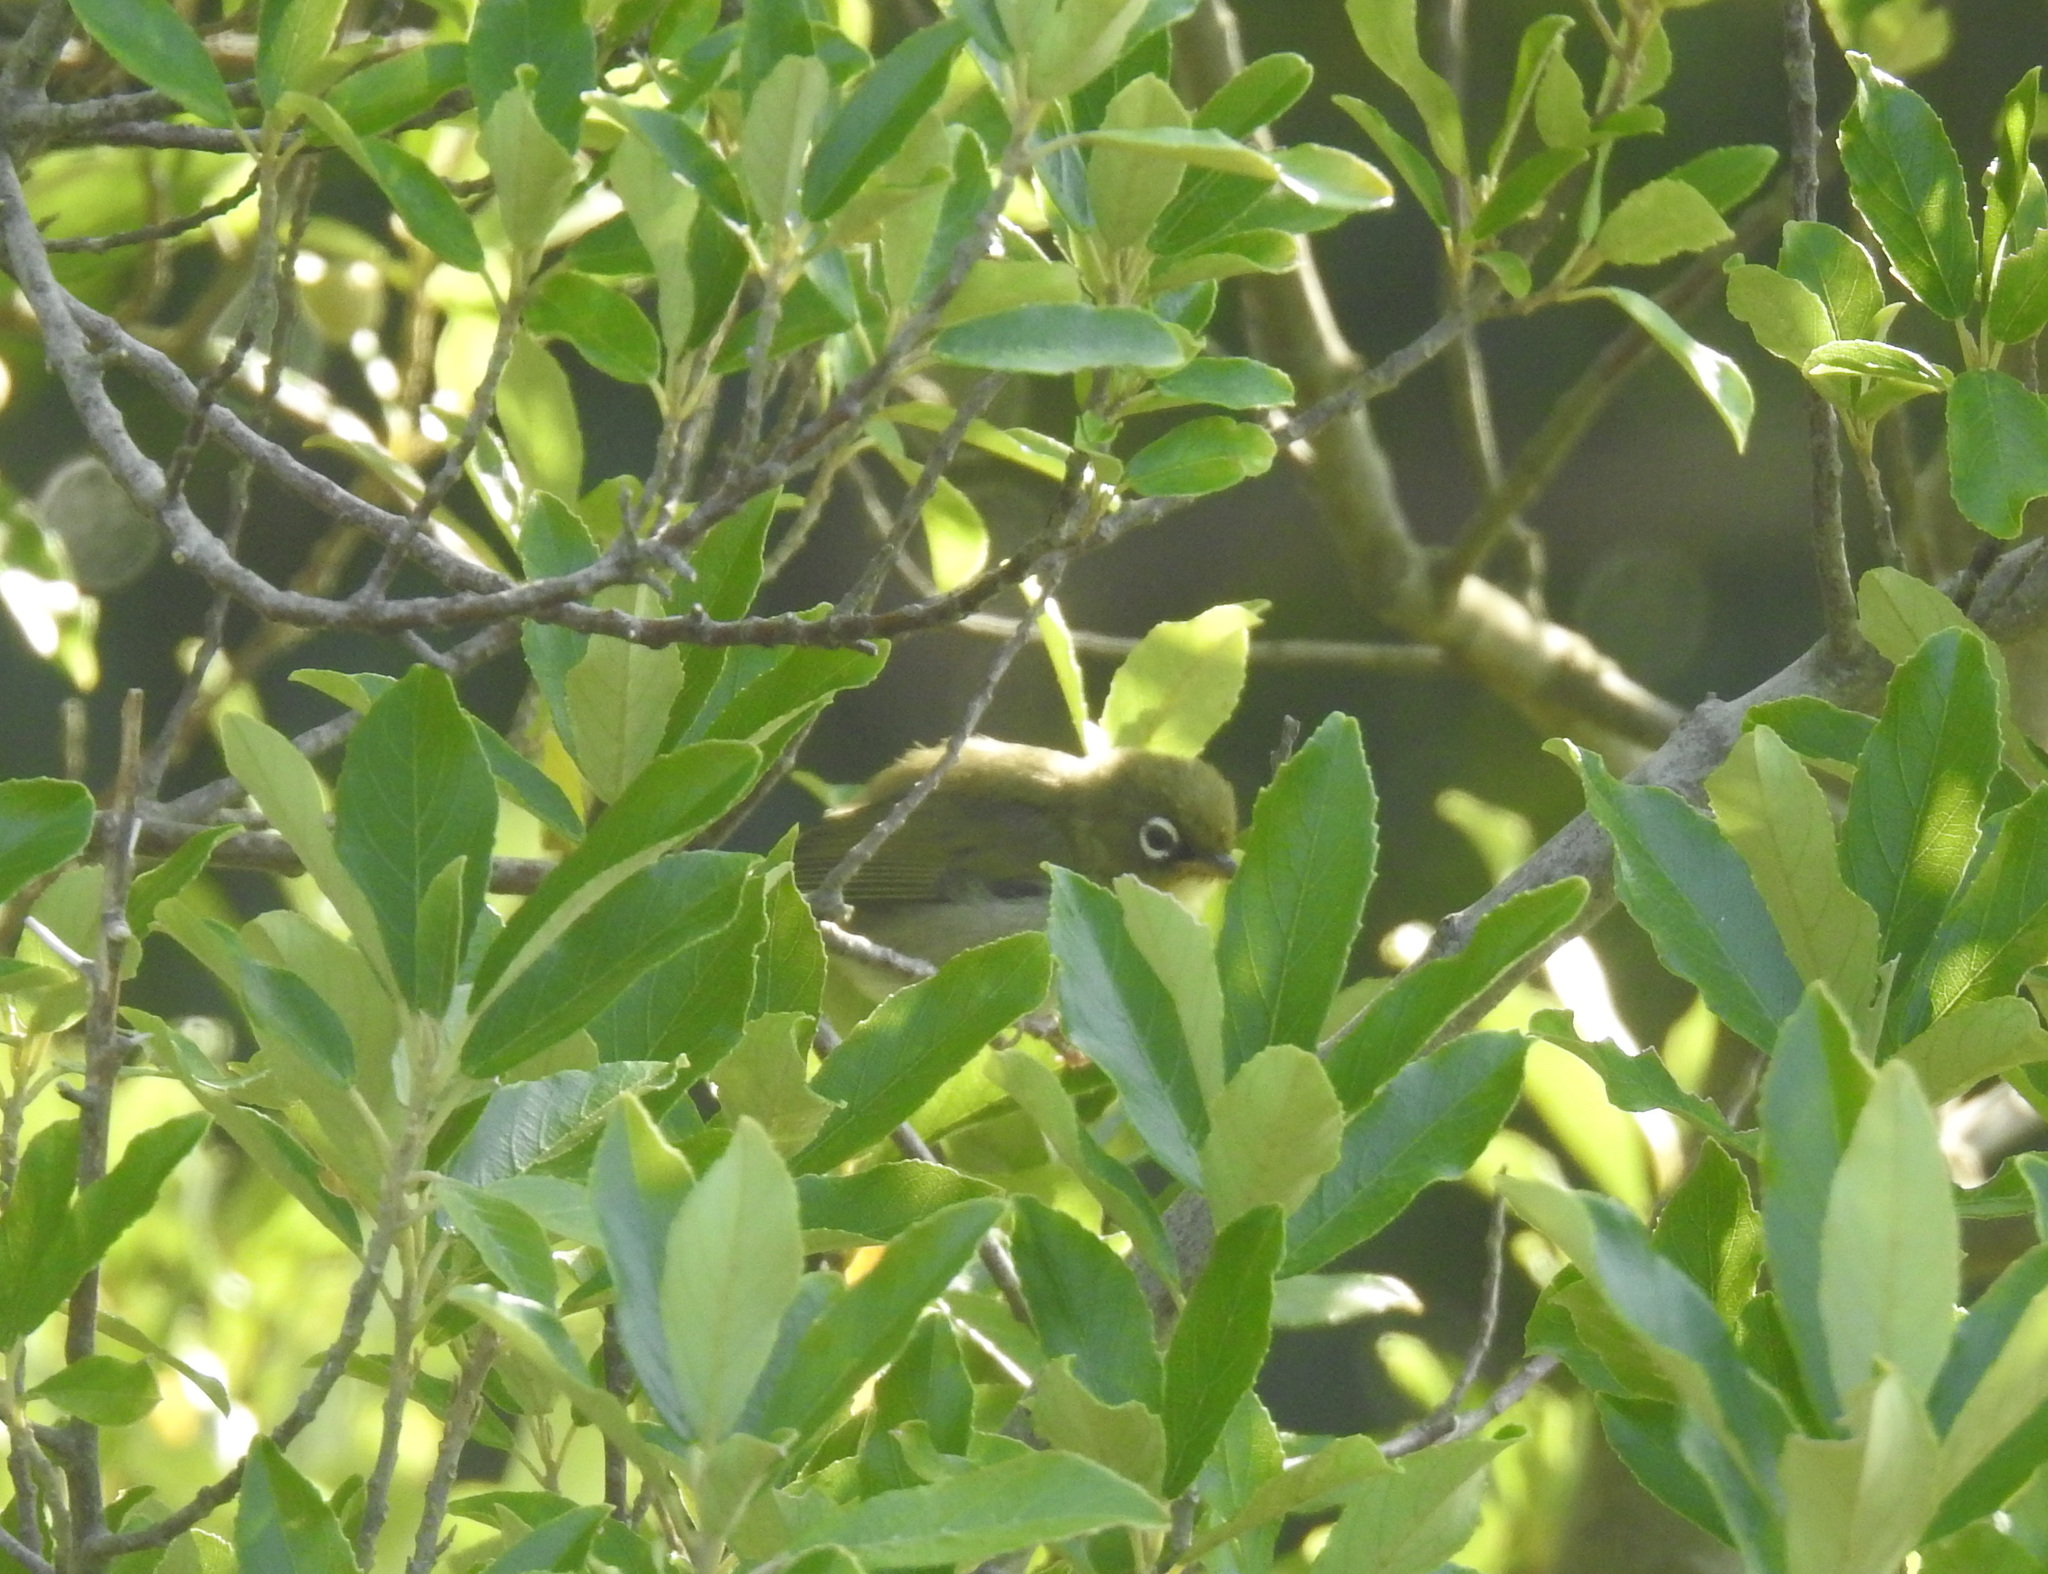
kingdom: Animalia
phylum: Chordata
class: Aves
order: Passeriformes
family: Zosteropidae
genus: Zosterops
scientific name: Zosterops virens
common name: Cape white-eye
